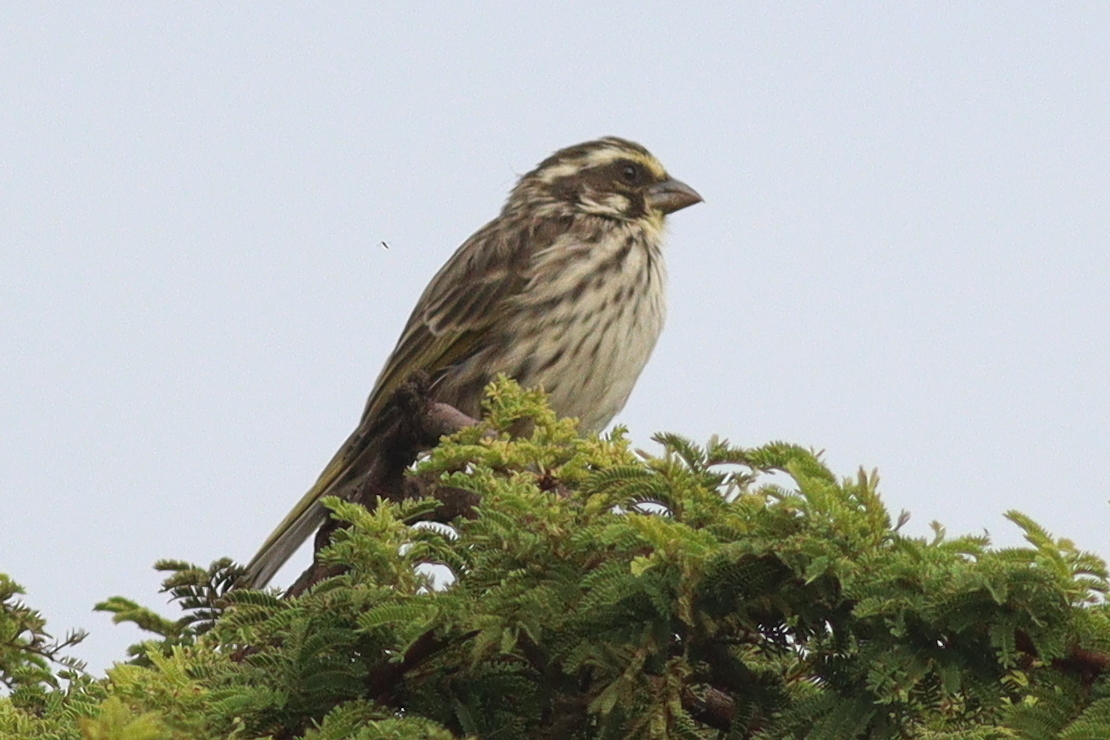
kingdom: Animalia
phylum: Chordata
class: Aves
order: Passeriformes
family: Fringillidae
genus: Crithagra
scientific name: Crithagra striolata
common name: Streaky seedeater
